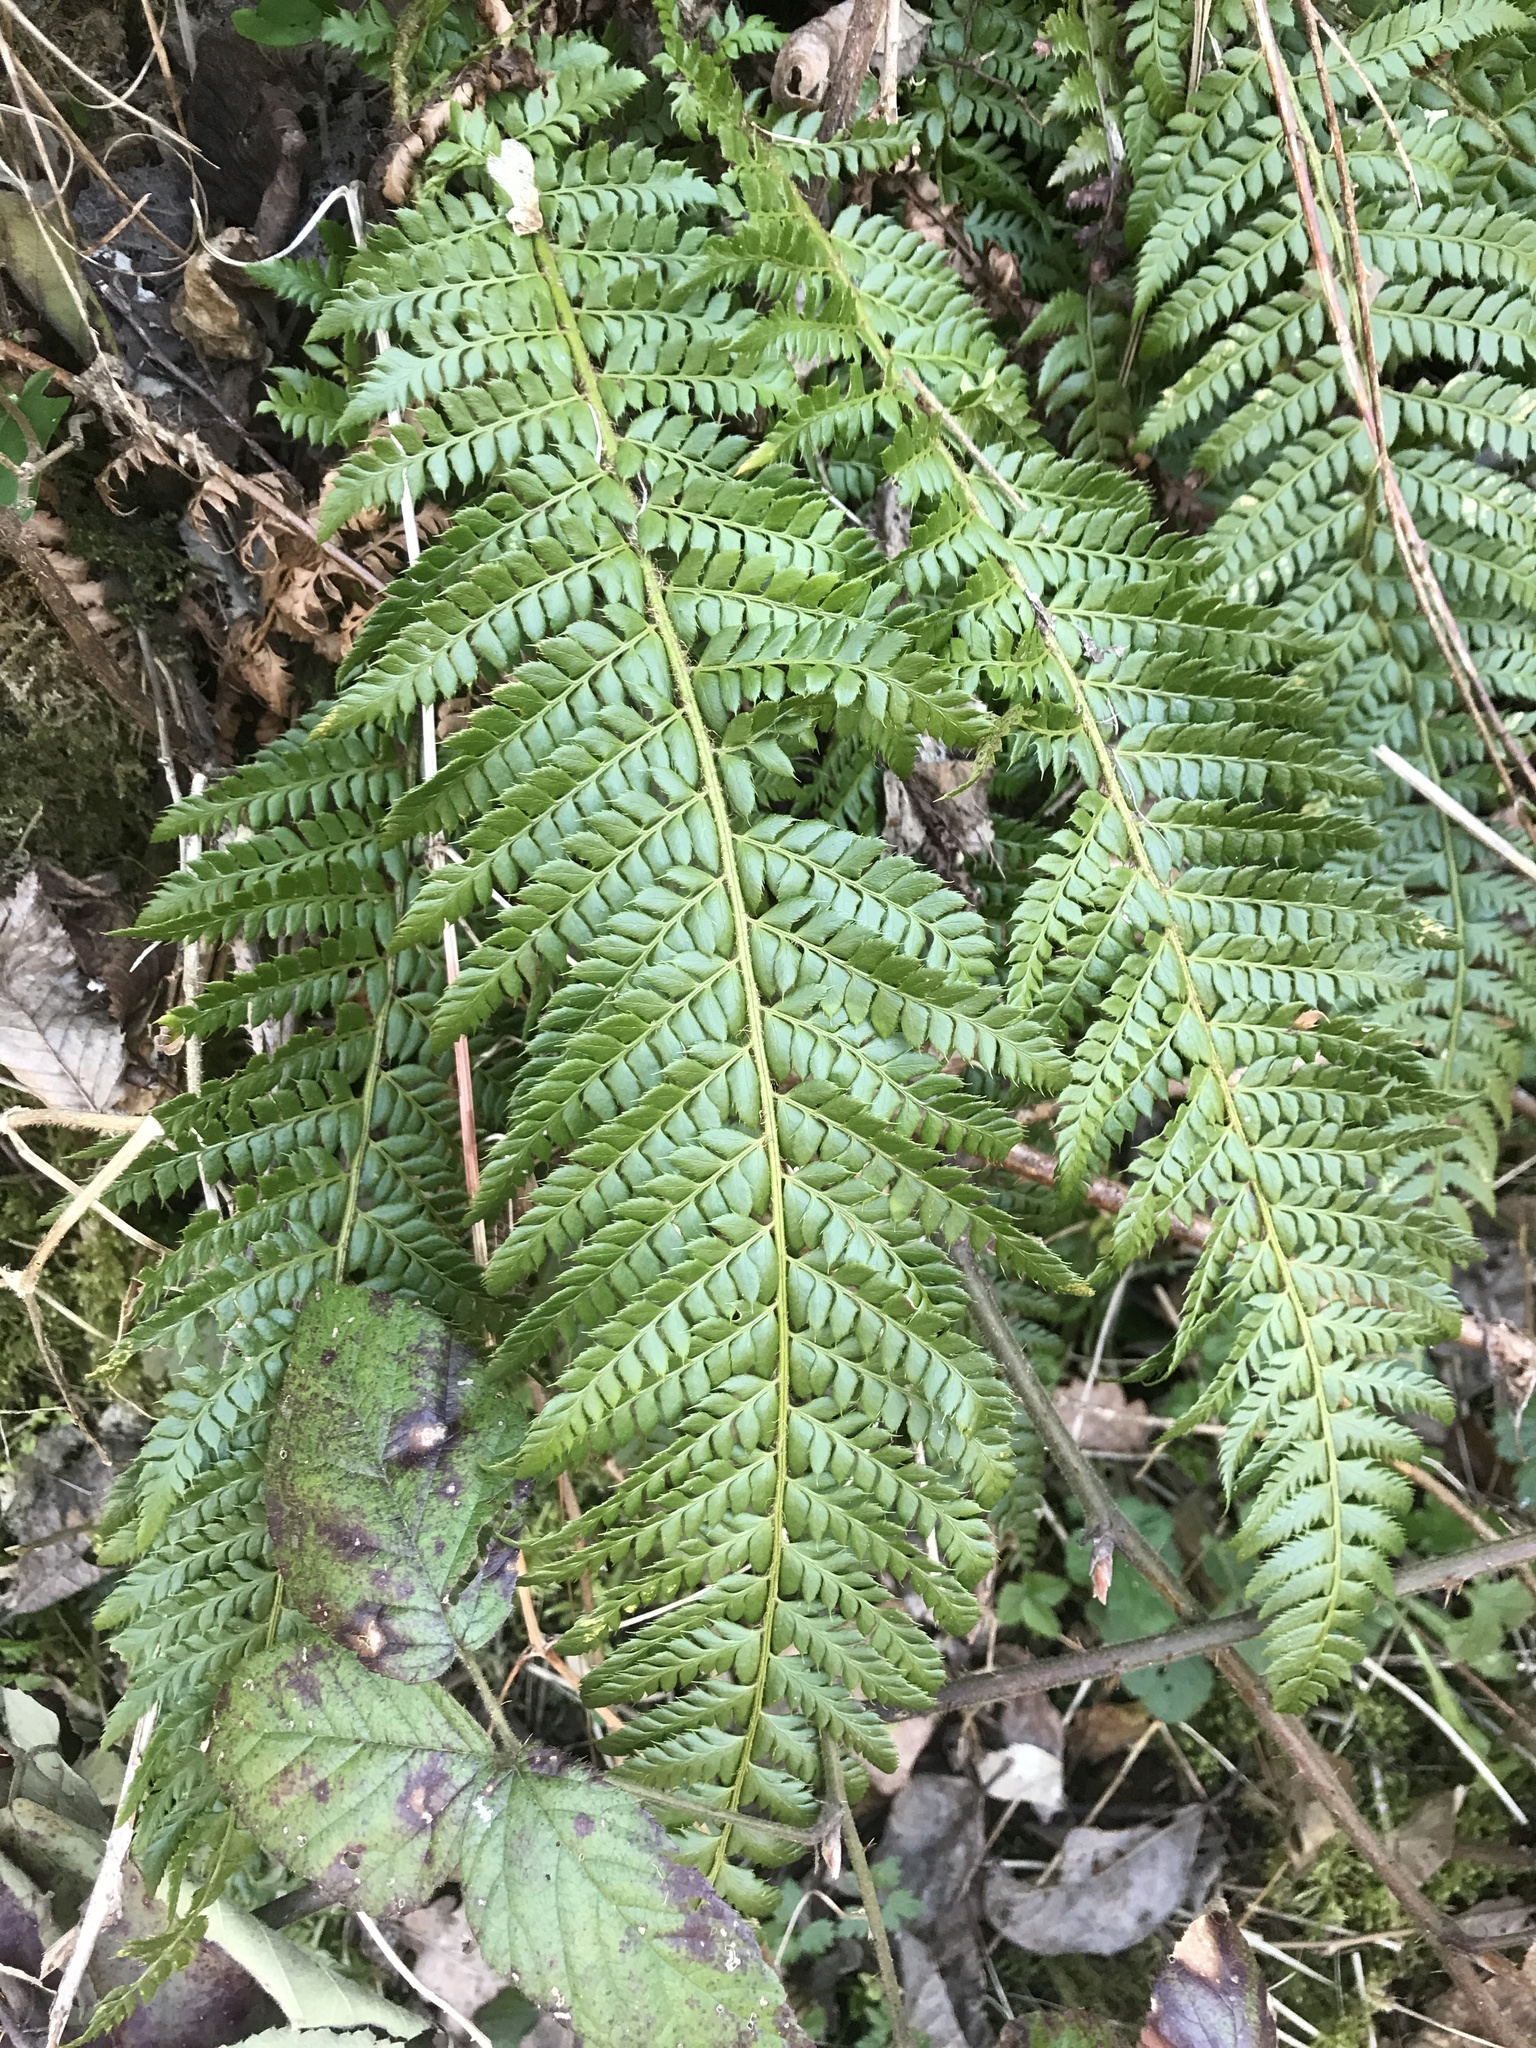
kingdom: Plantae
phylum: Tracheophyta
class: Polypodiopsida
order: Polypodiales
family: Dryopteridaceae
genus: Polystichum
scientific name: Polystichum aculeatum
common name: Hard shield-fern
